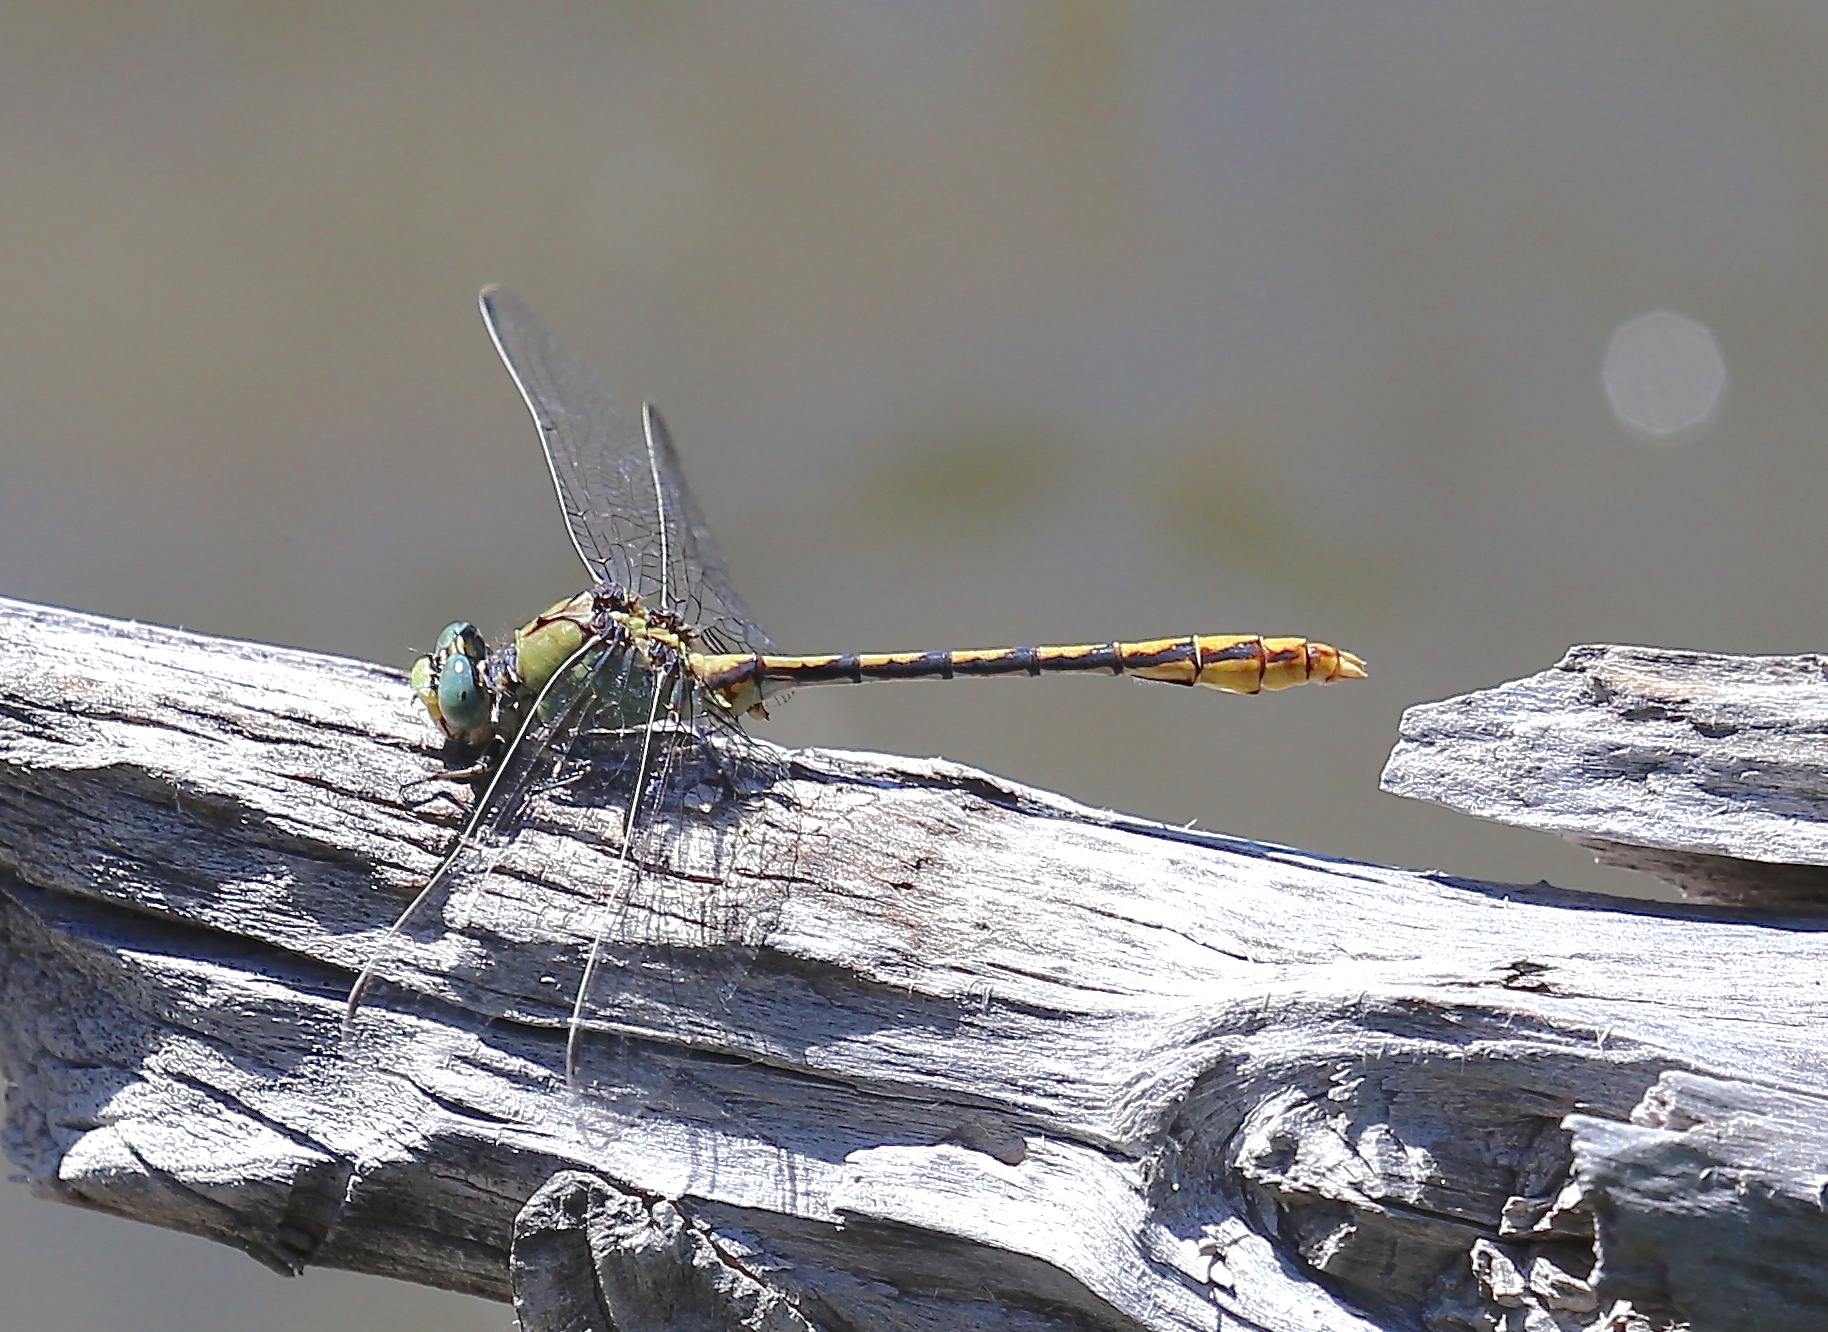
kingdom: Animalia
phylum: Arthropoda
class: Insecta
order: Odonata
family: Gomphidae
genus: Ophiogomphus
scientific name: Ophiogomphus arizonicus
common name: Arizona snaketail
